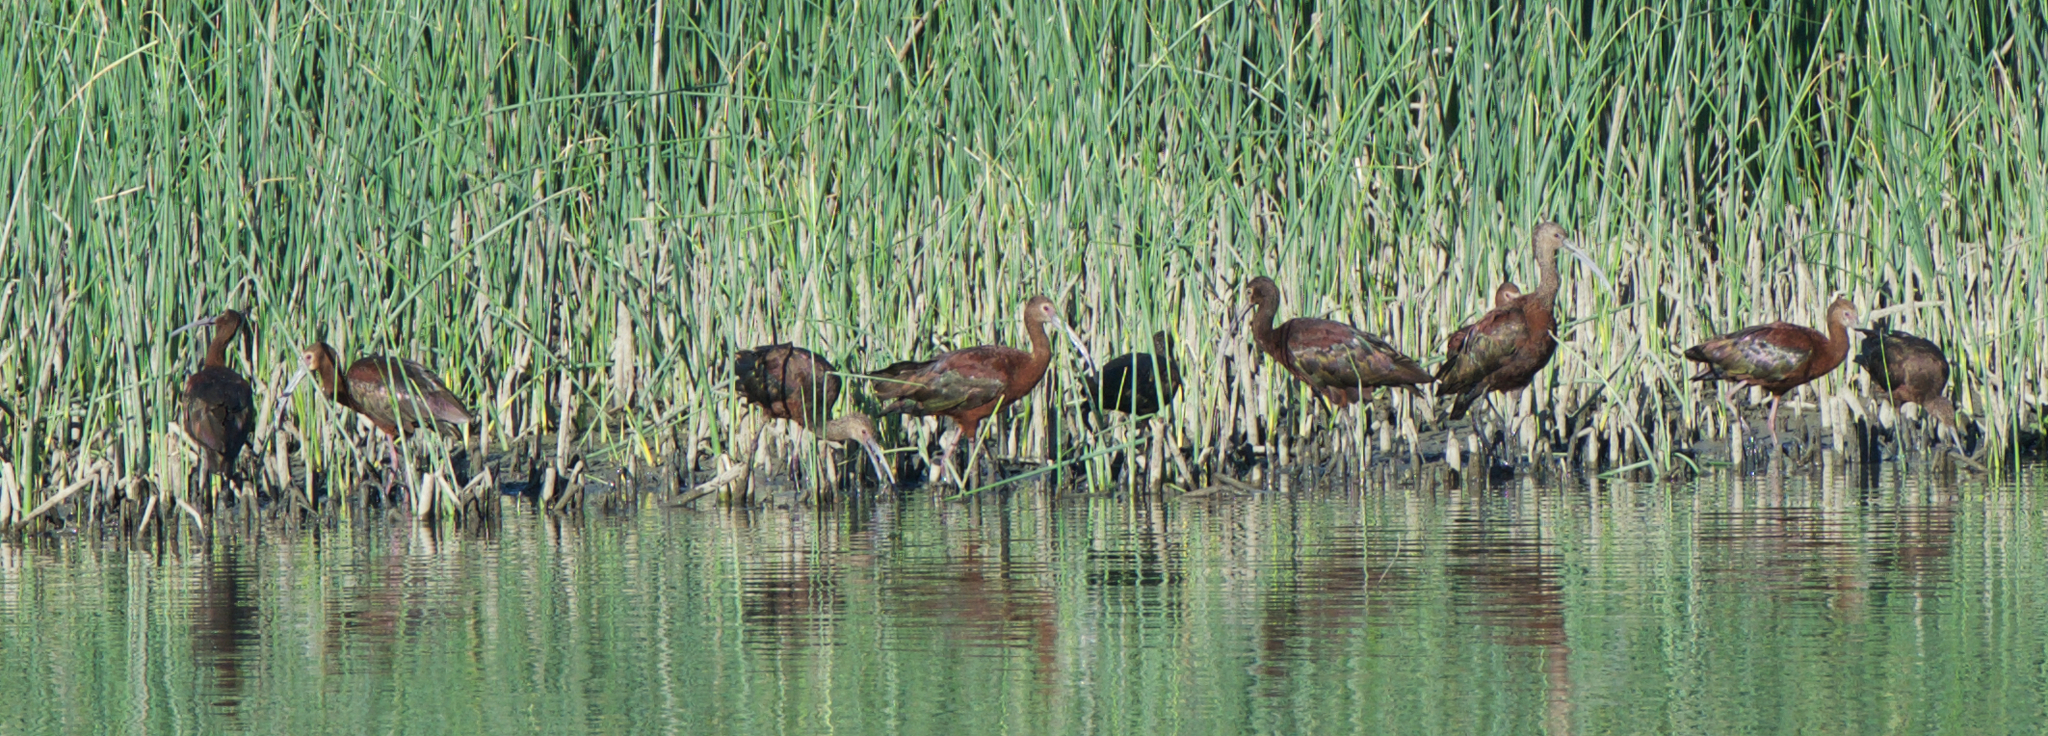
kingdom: Animalia
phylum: Chordata
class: Aves
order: Pelecaniformes
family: Threskiornithidae
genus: Plegadis
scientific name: Plegadis chihi
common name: White-faced ibis
